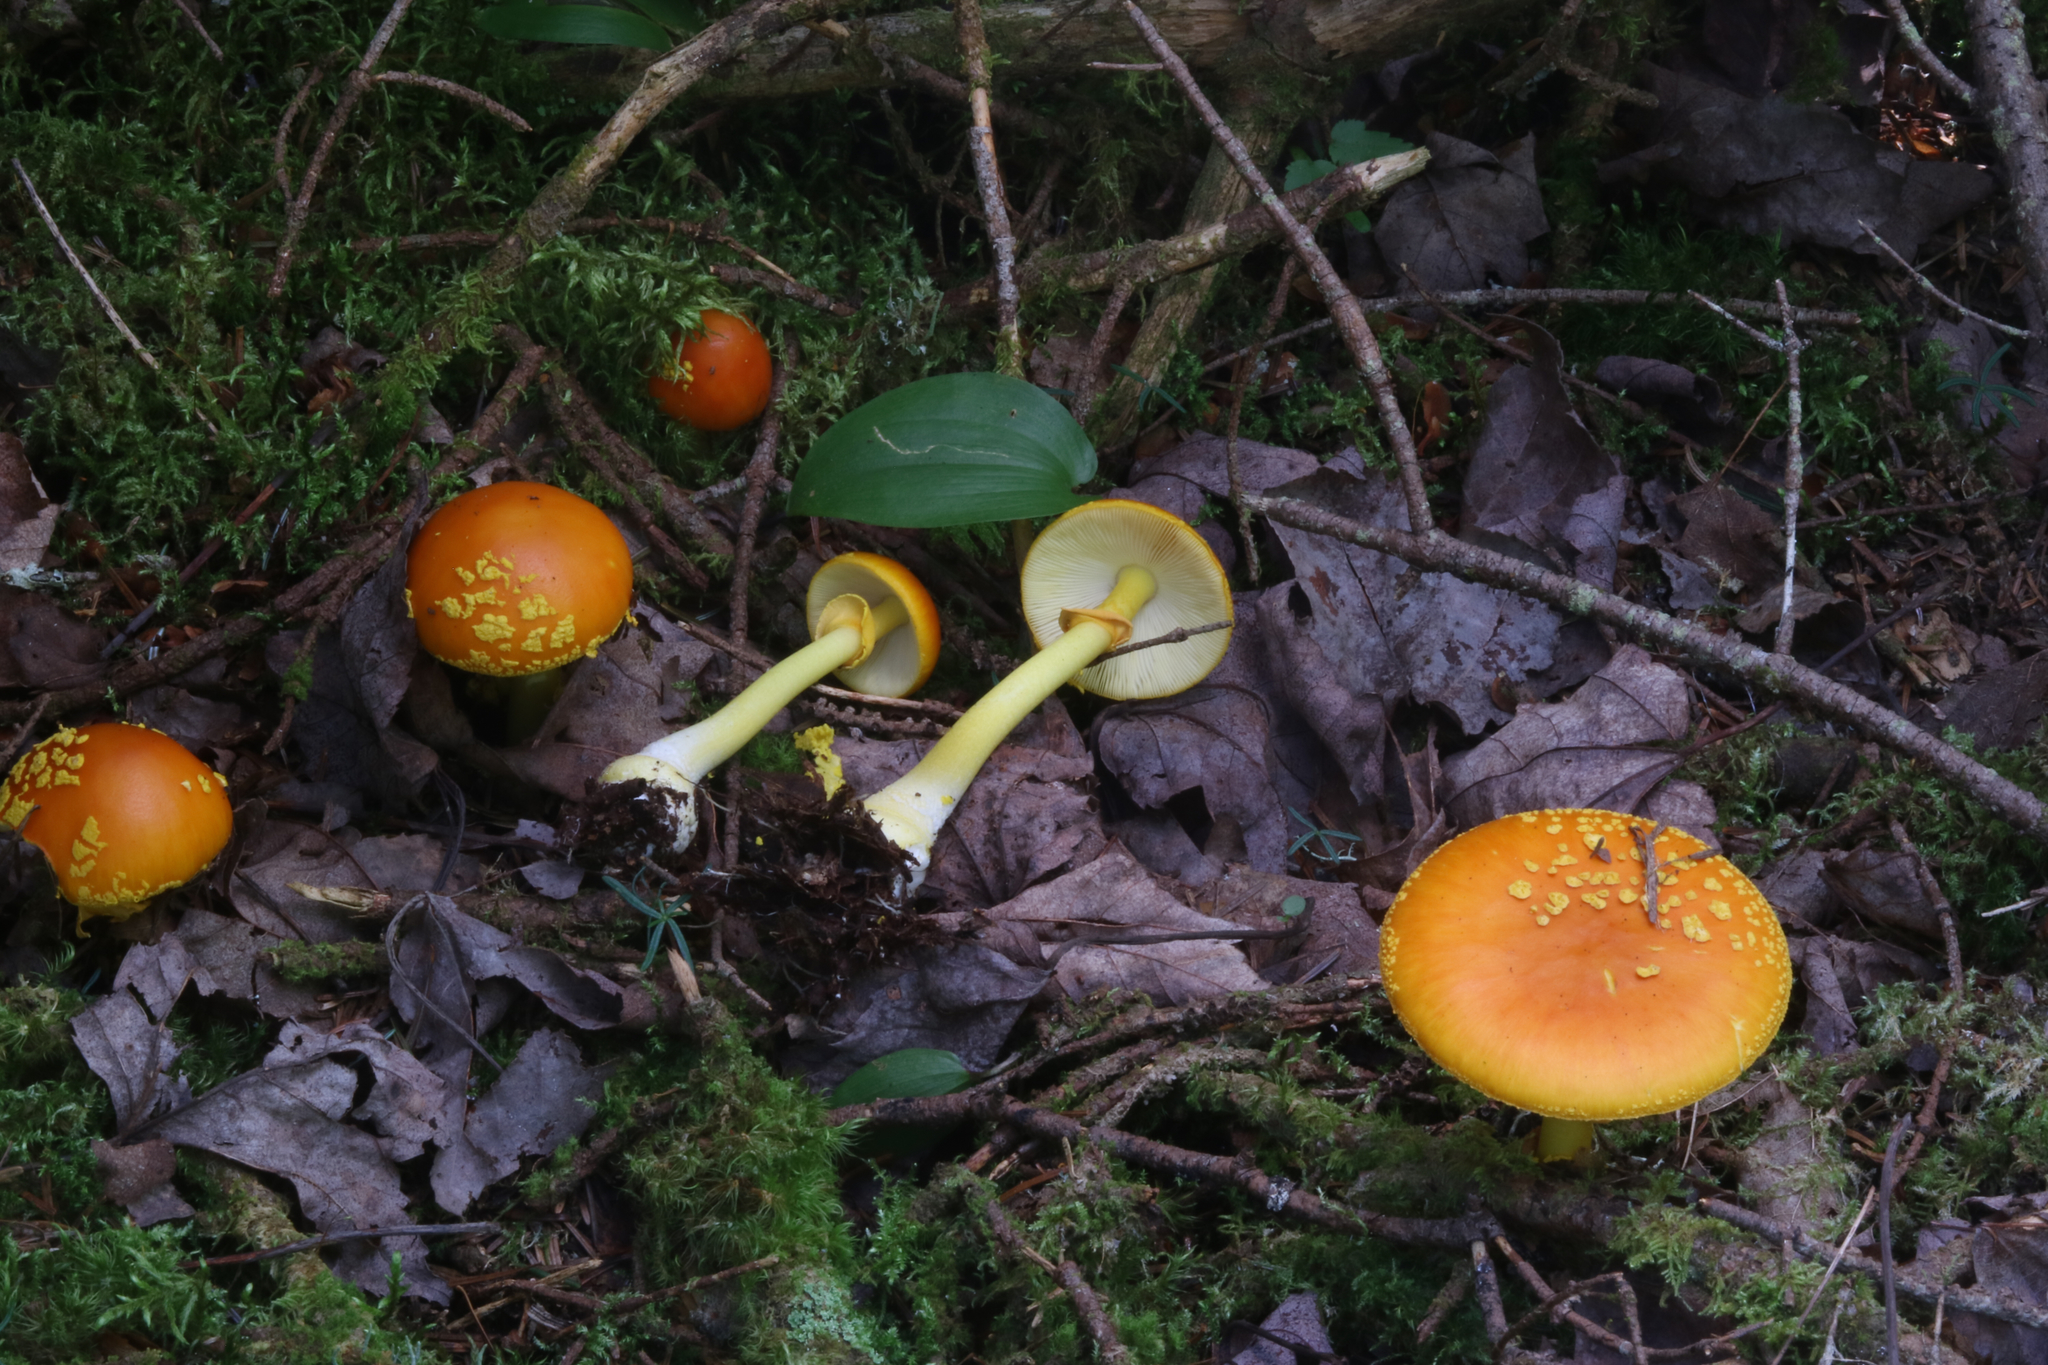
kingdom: Fungi
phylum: Basidiomycota
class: Agaricomycetes
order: Agaricales
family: Amanitaceae
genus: Amanita
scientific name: Amanita flavoconia
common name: Yellow patches
